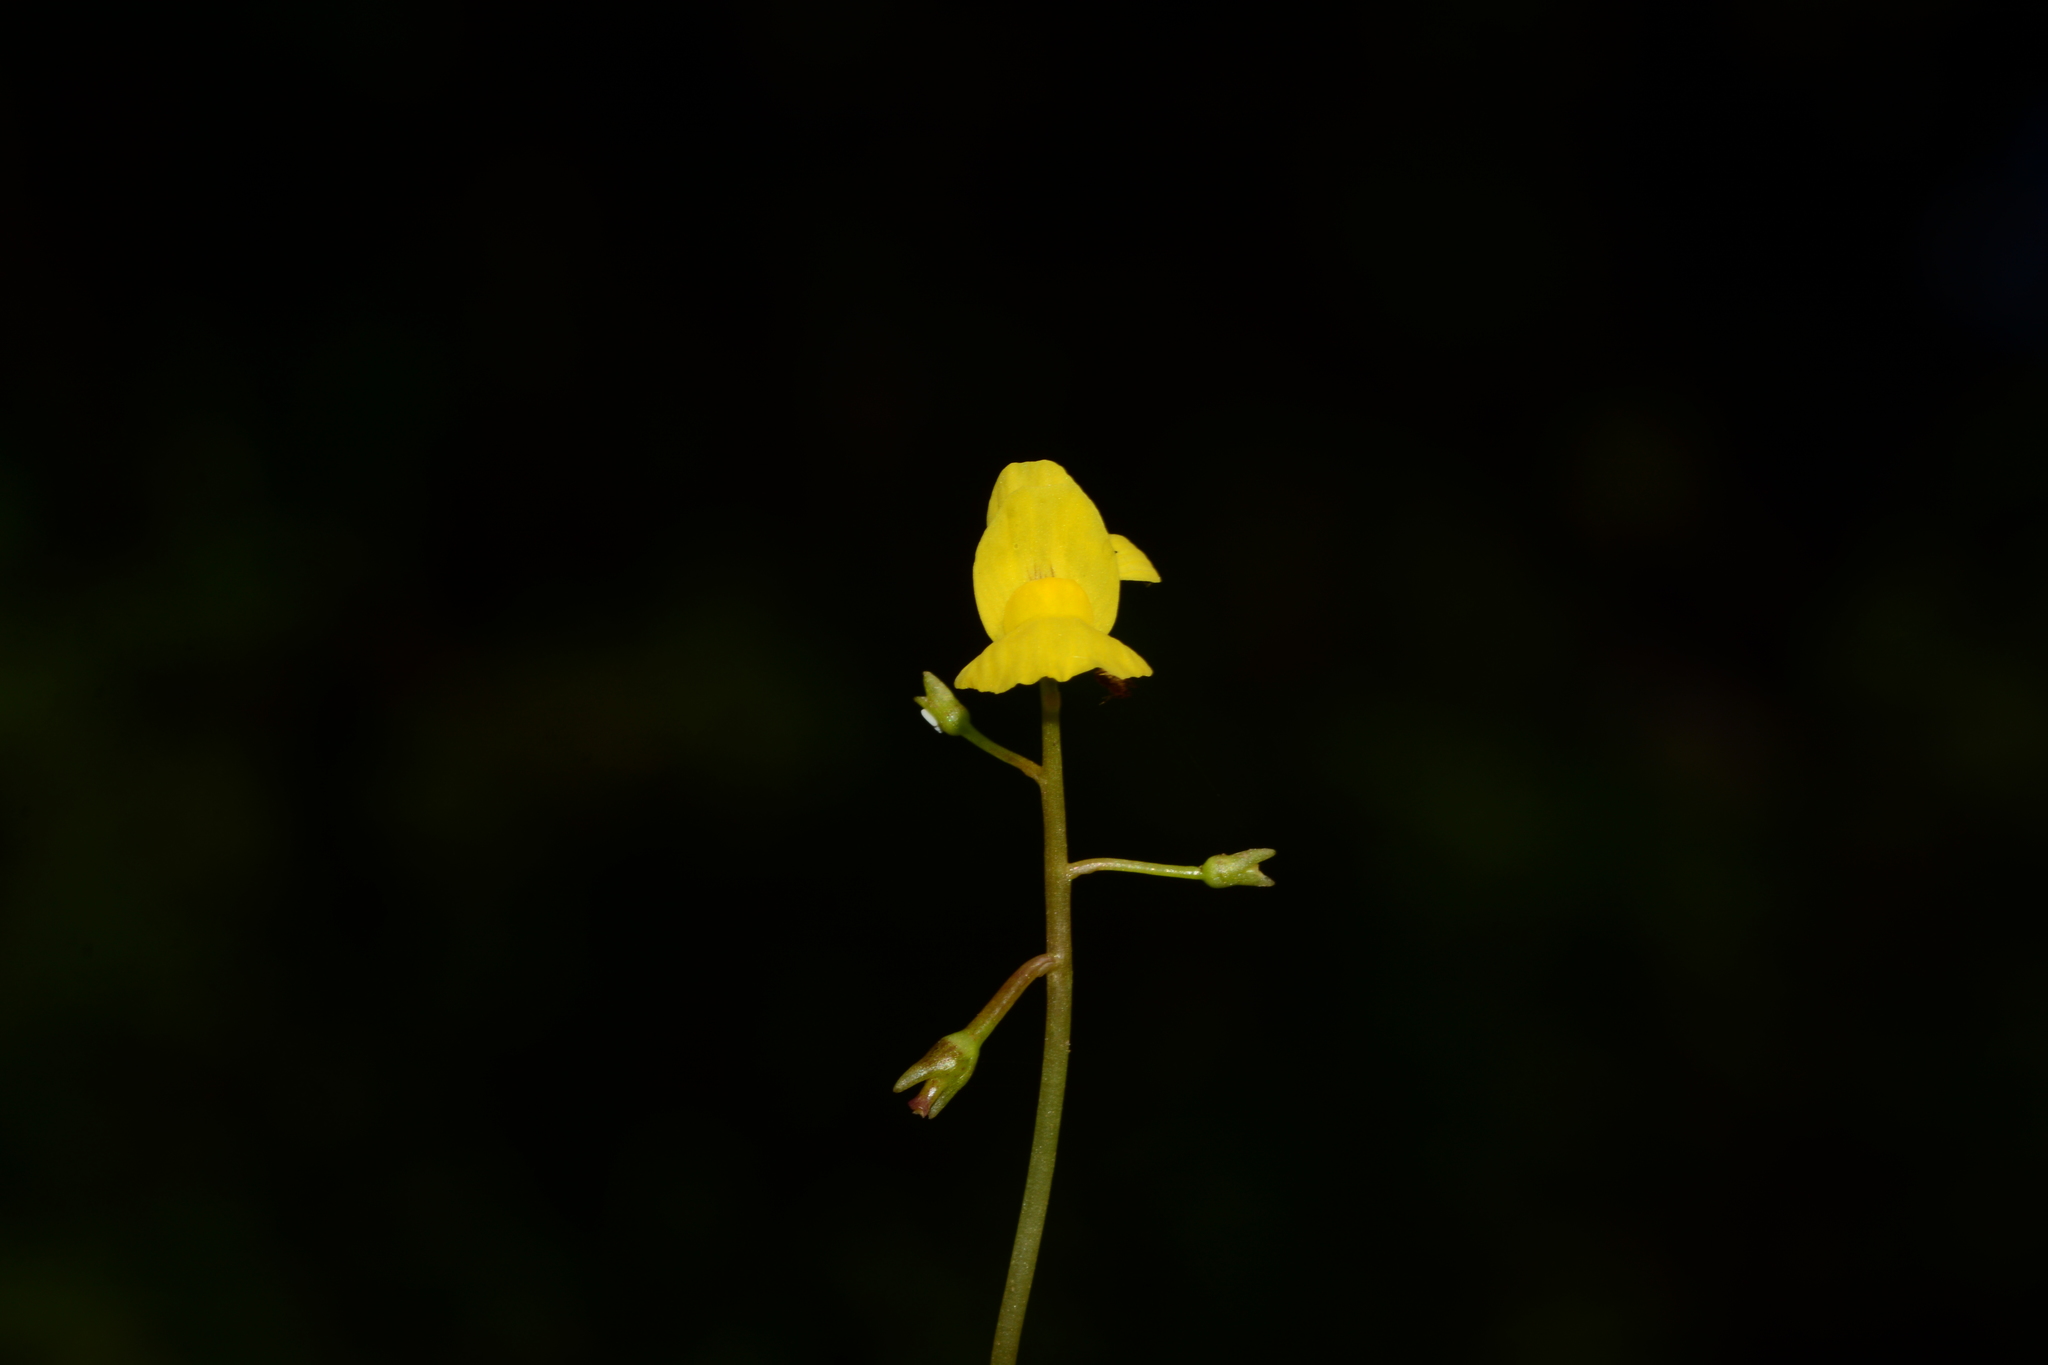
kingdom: Plantae
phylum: Tracheophyta
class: Magnoliopsida
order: Lamiales
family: Lentibulariaceae
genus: Utricularia
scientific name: Utricularia aurea
